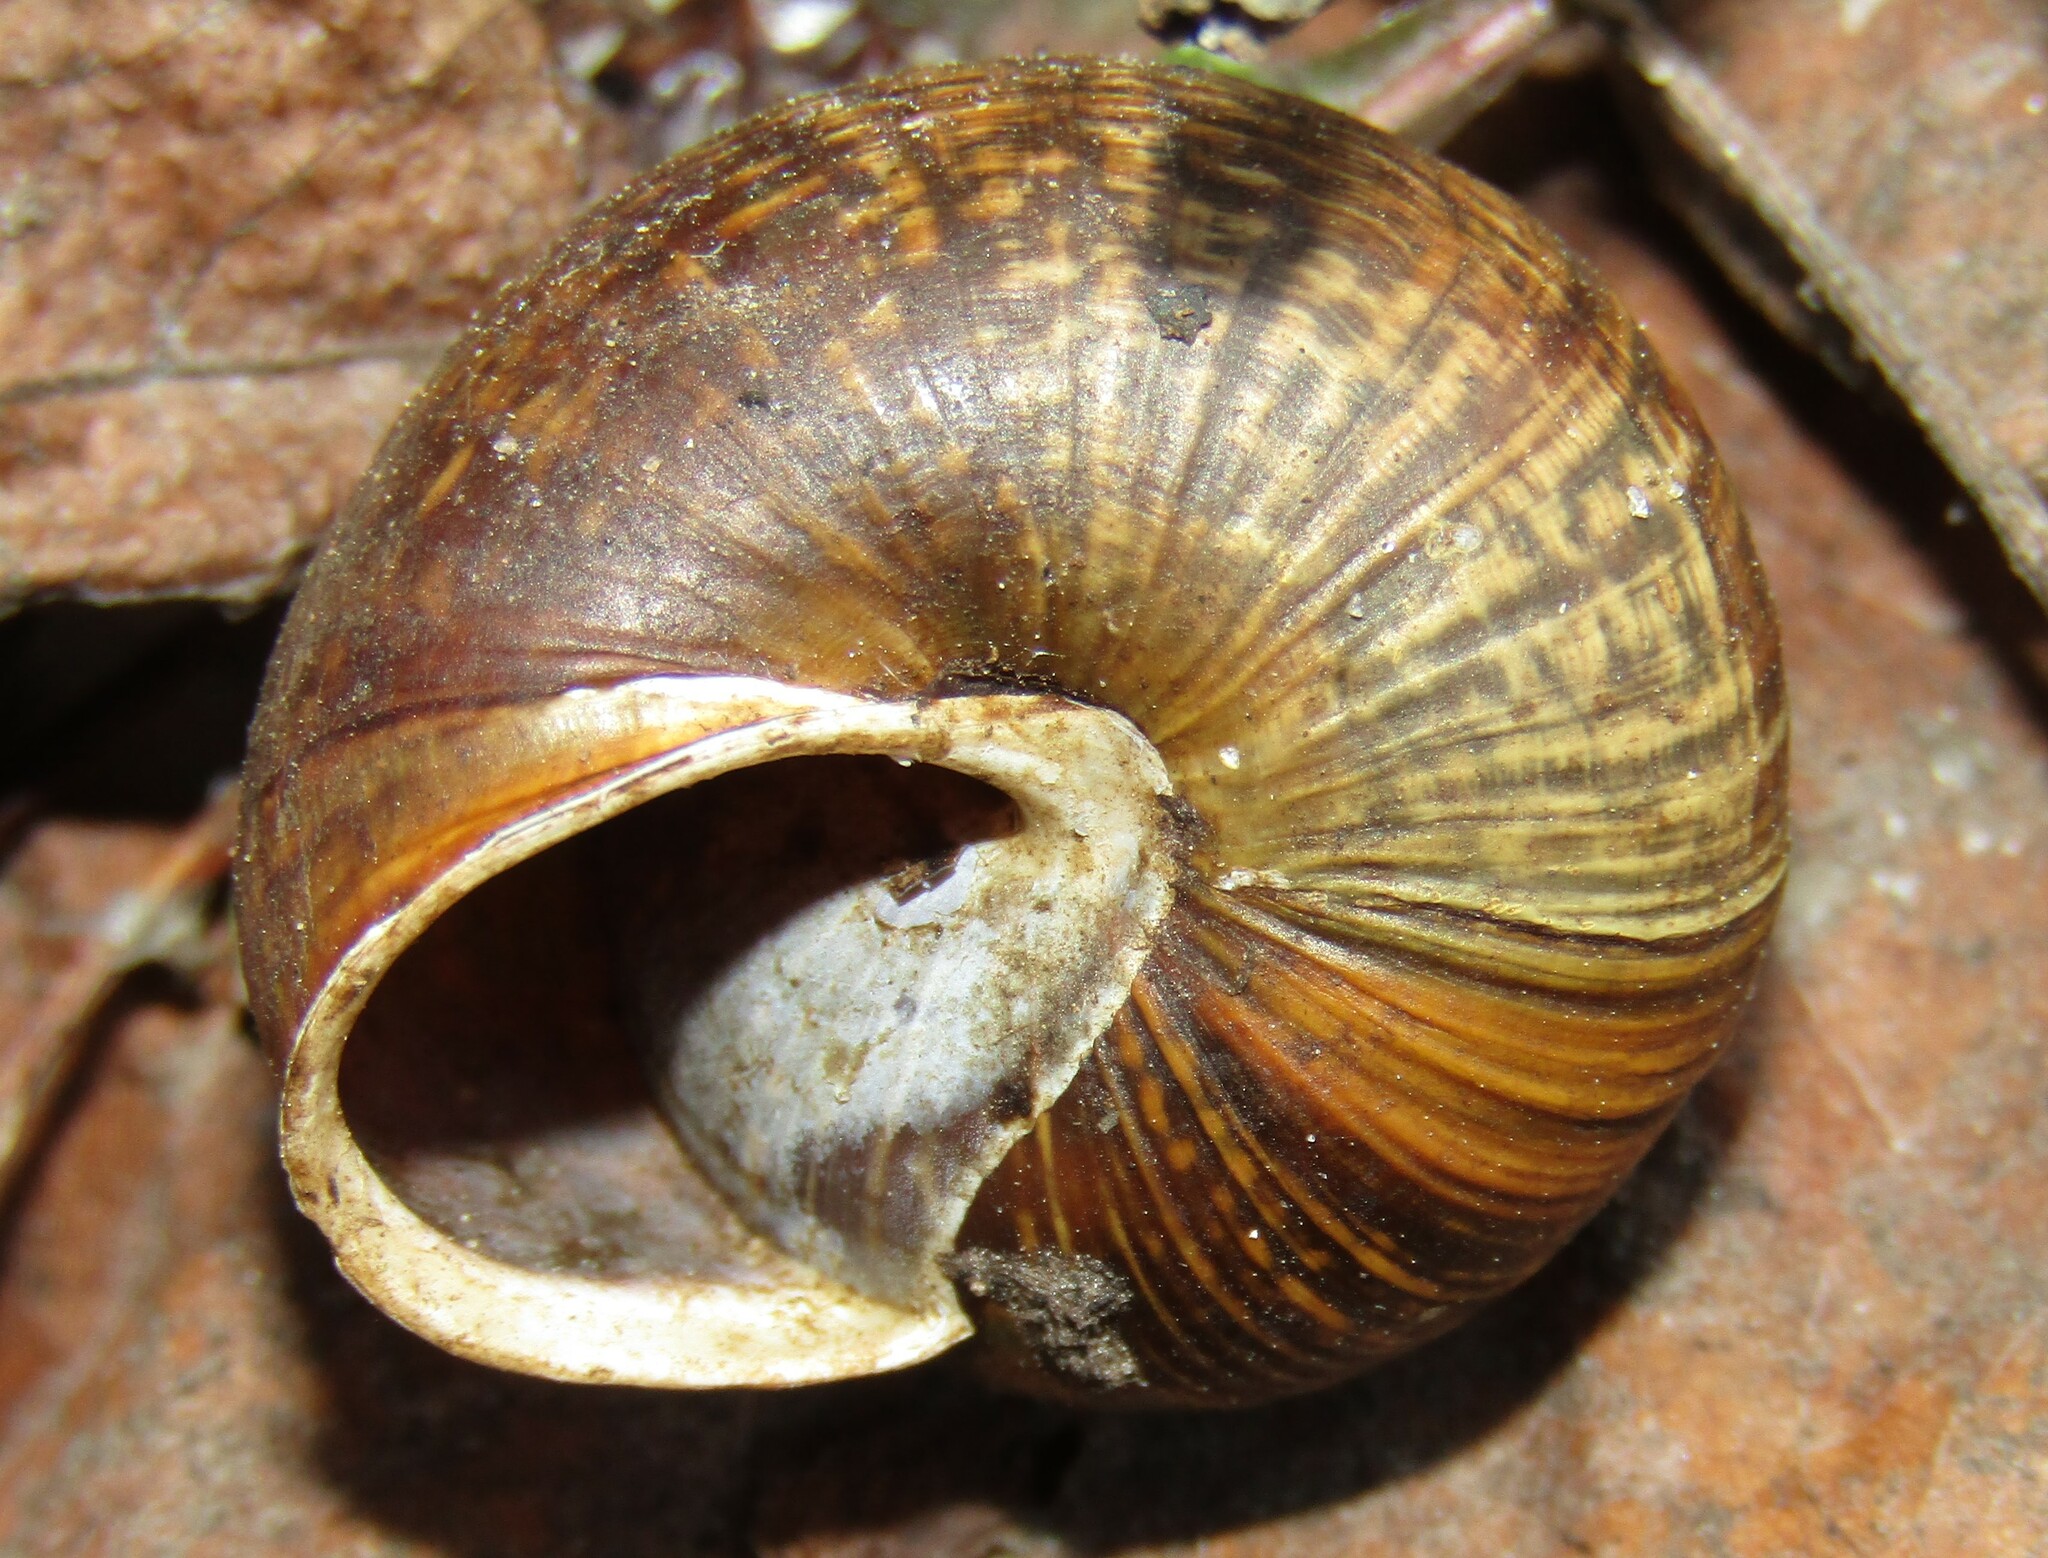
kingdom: Animalia
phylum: Mollusca
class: Gastropoda
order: Stylommatophora
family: Helicidae
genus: Arianta
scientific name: Arianta arbustorum
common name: Copse snail
